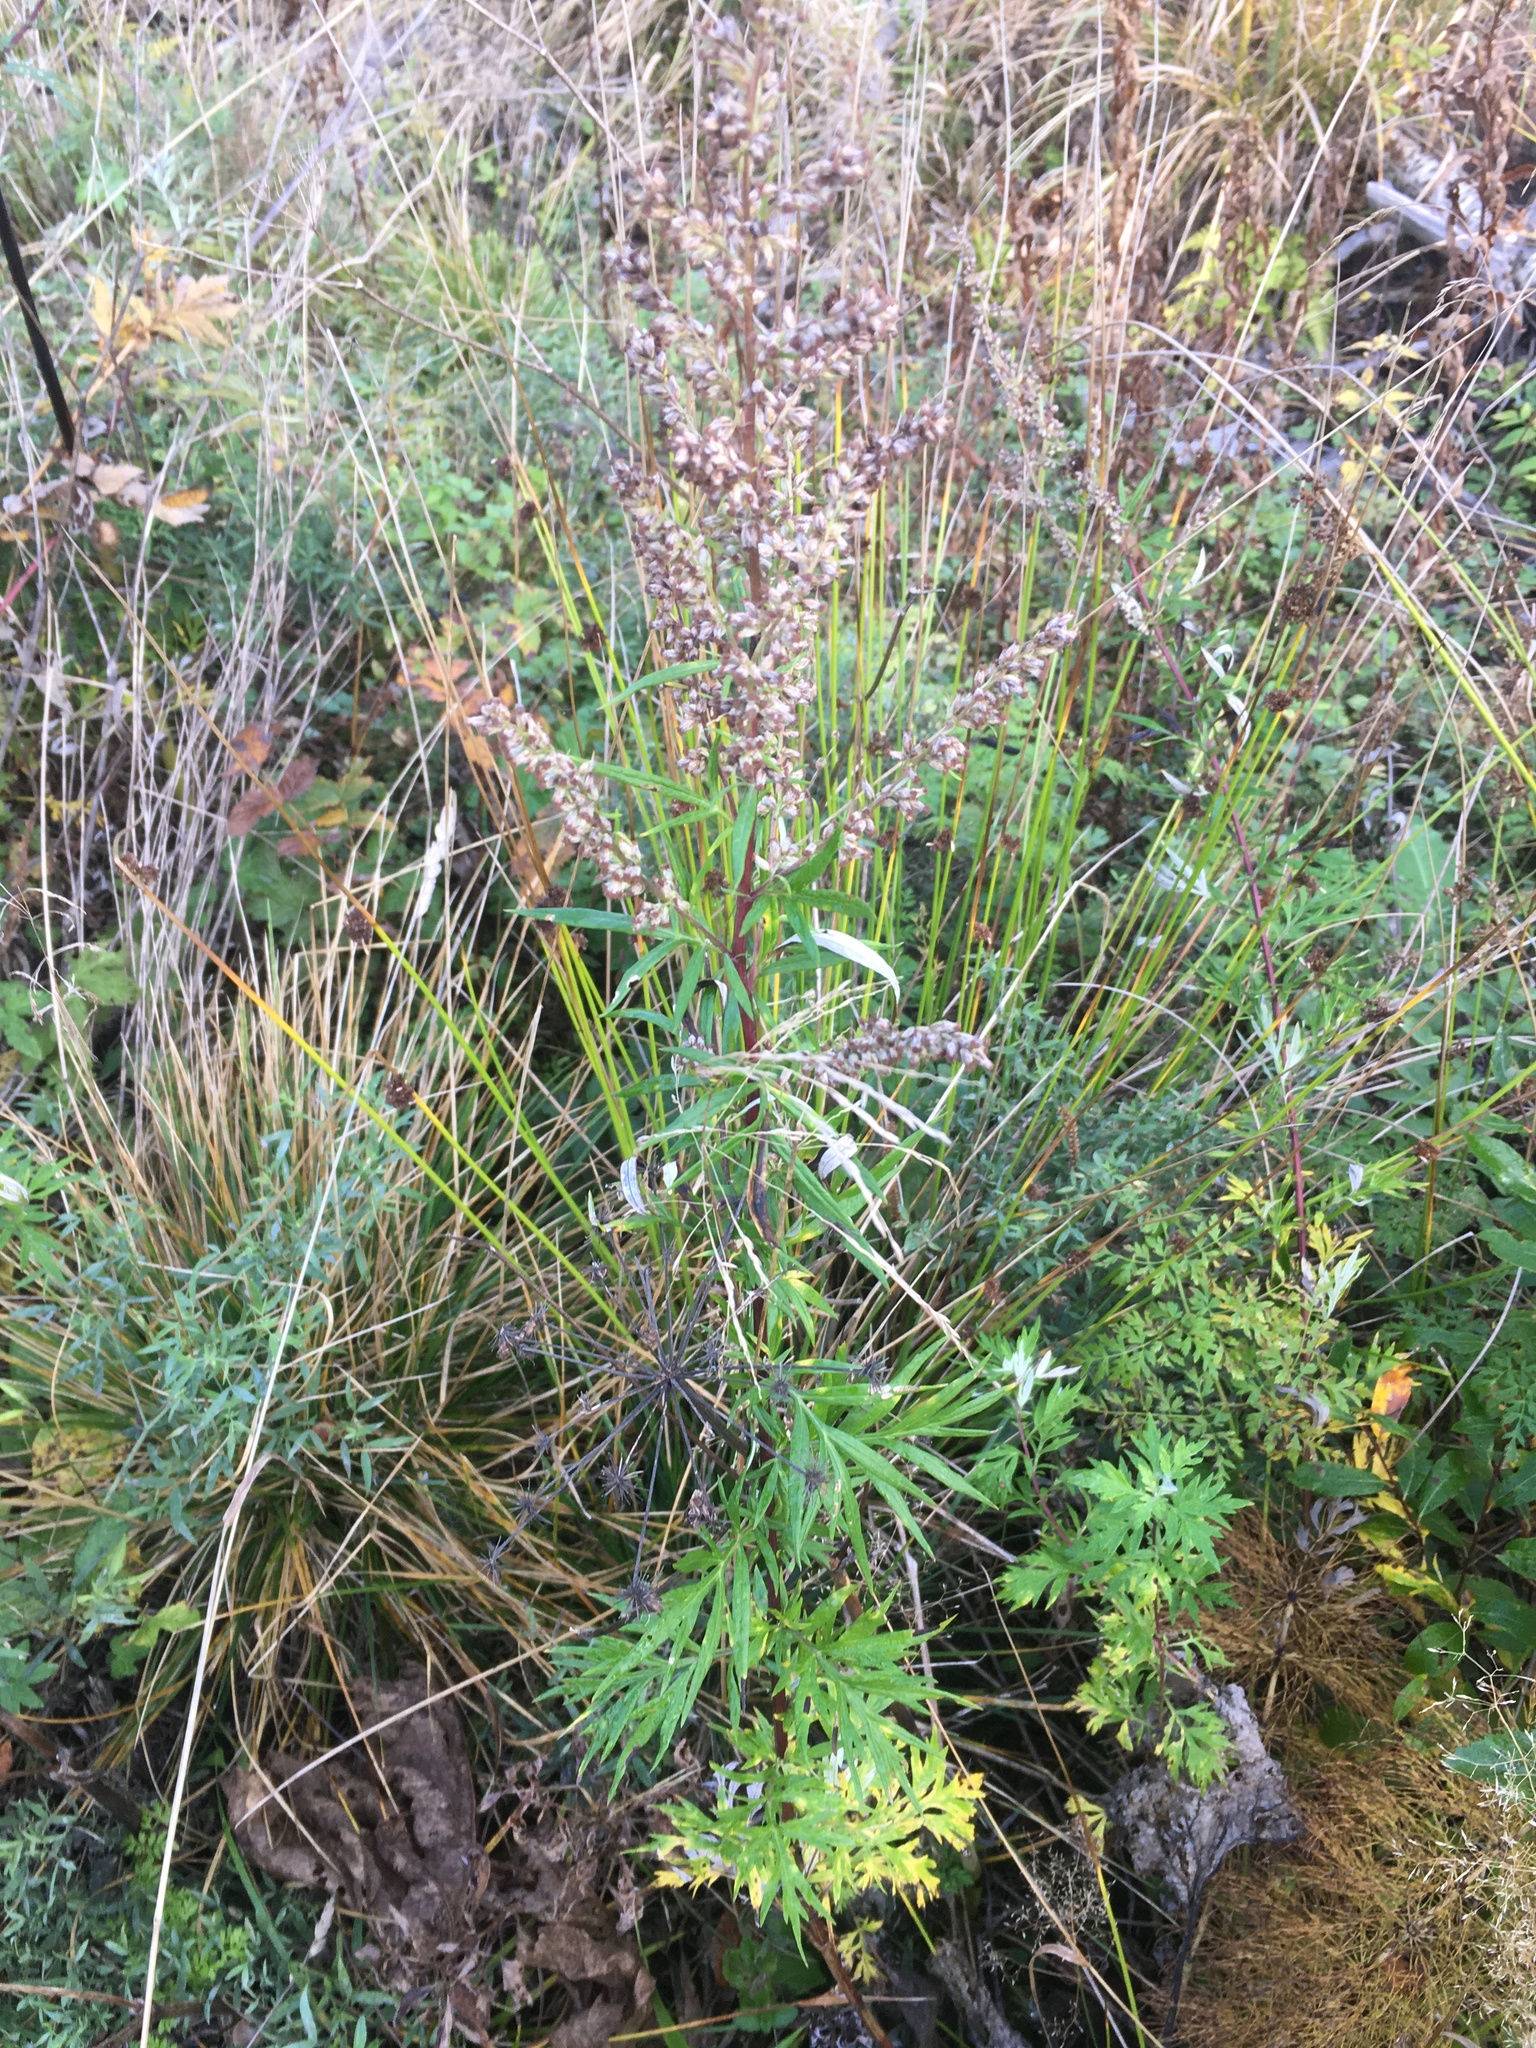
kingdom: Plantae
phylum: Tracheophyta
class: Magnoliopsida
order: Asterales
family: Asteraceae
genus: Artemisia
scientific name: Artemisia vulgaris
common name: Mugwort
